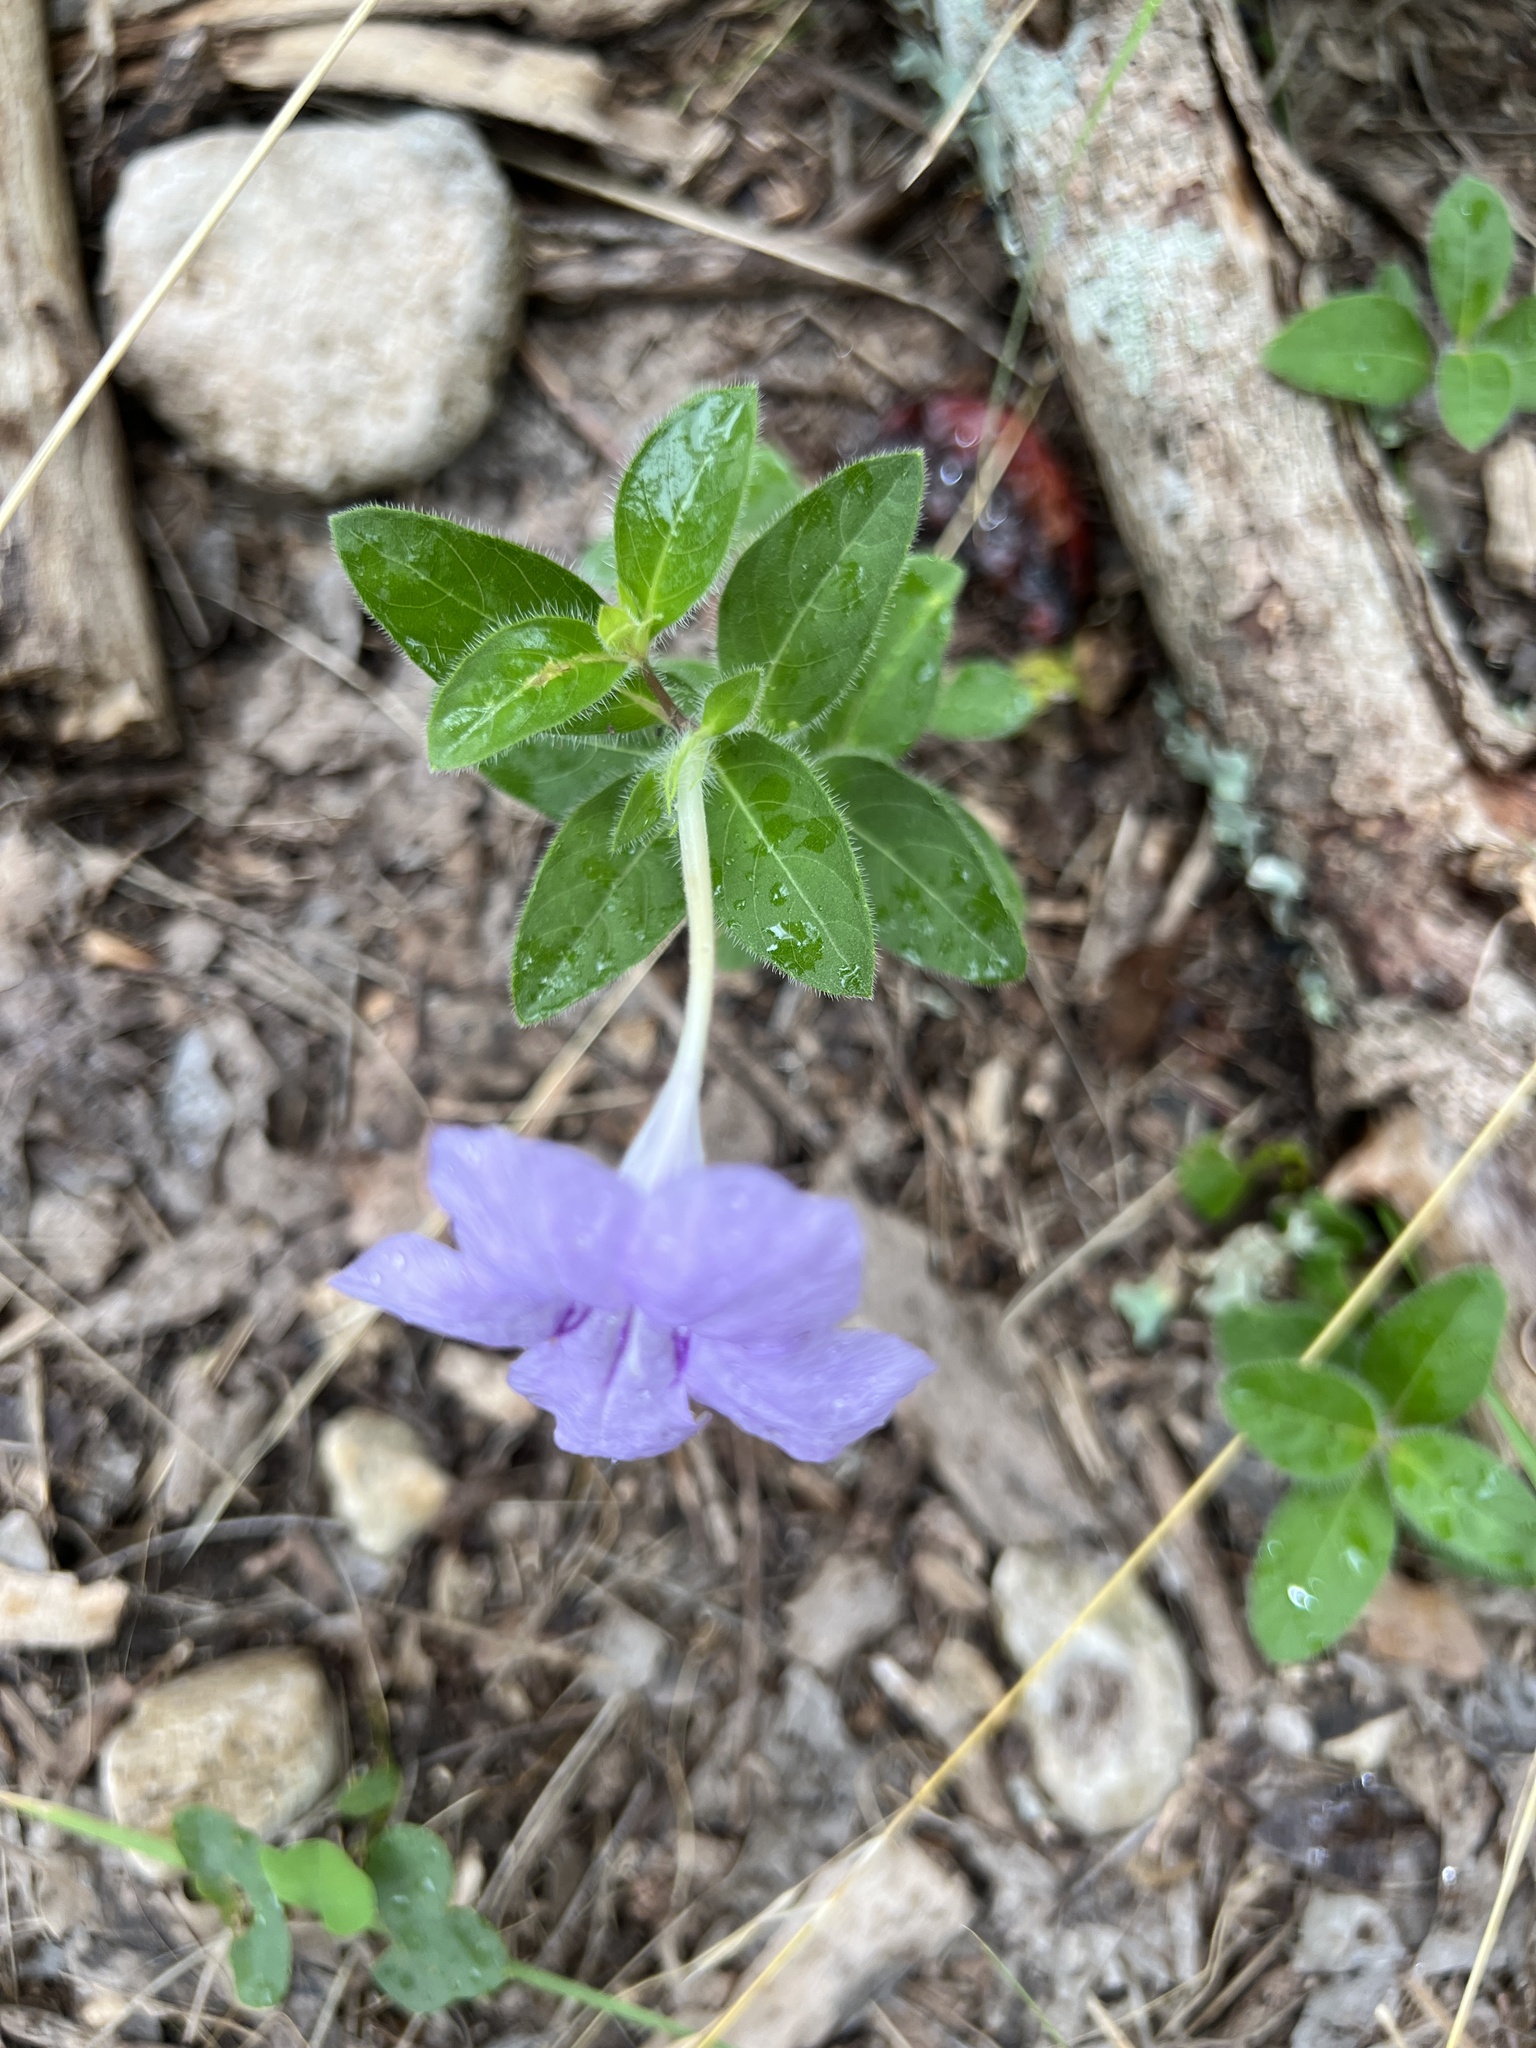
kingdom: Plantae
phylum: Tracheophyta
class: Magnoliopsida
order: Lamiales
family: Acanthaceae
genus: Ruellia
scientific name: Ruellia humilis
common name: Fringe-leaf ruellia
